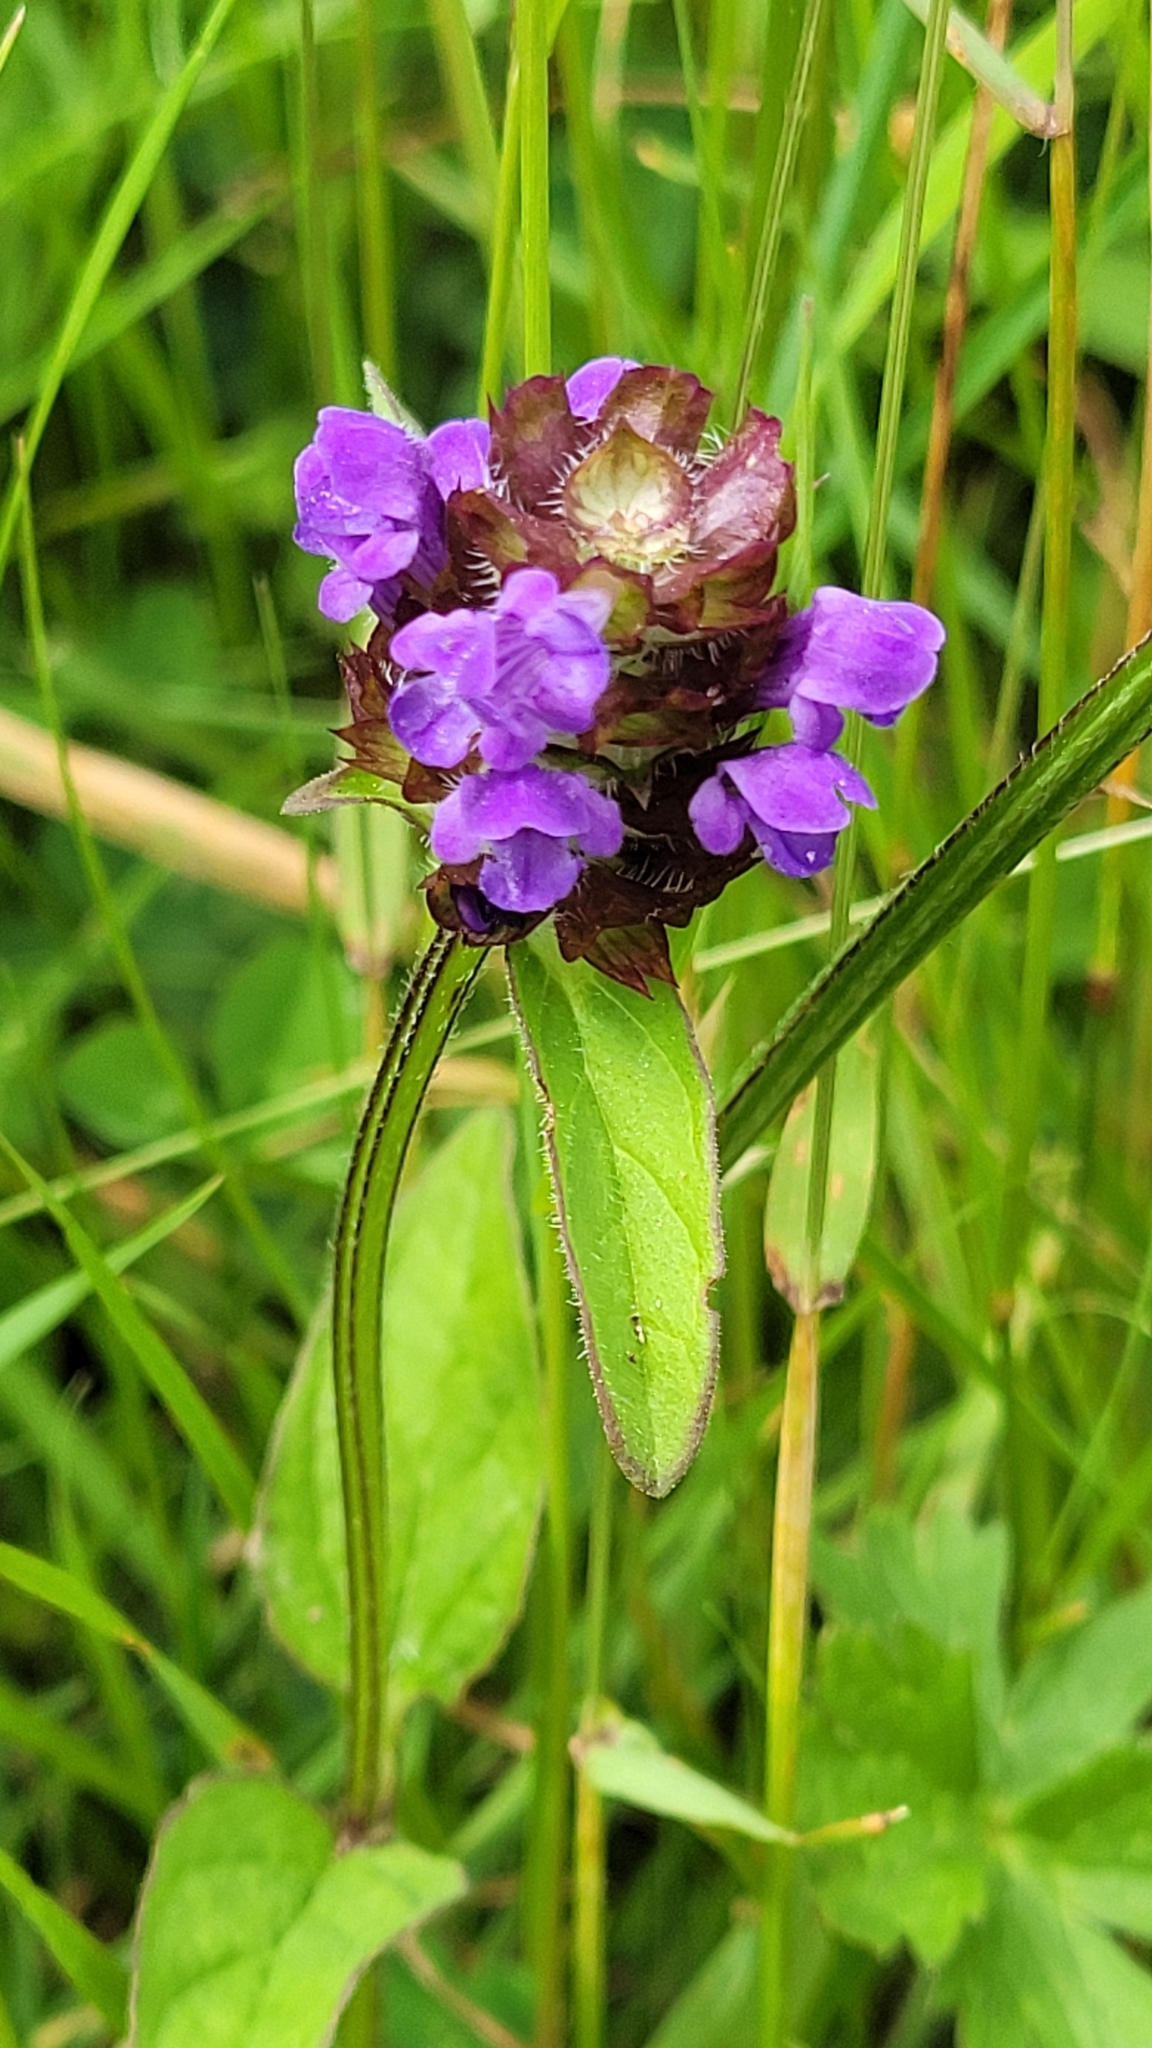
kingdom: Plantae
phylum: Tracheophyta
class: Magnoliopsida
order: Lamiales
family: Lamiaceae
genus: Prunella
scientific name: Prunella vulgaris
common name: Heal-all
